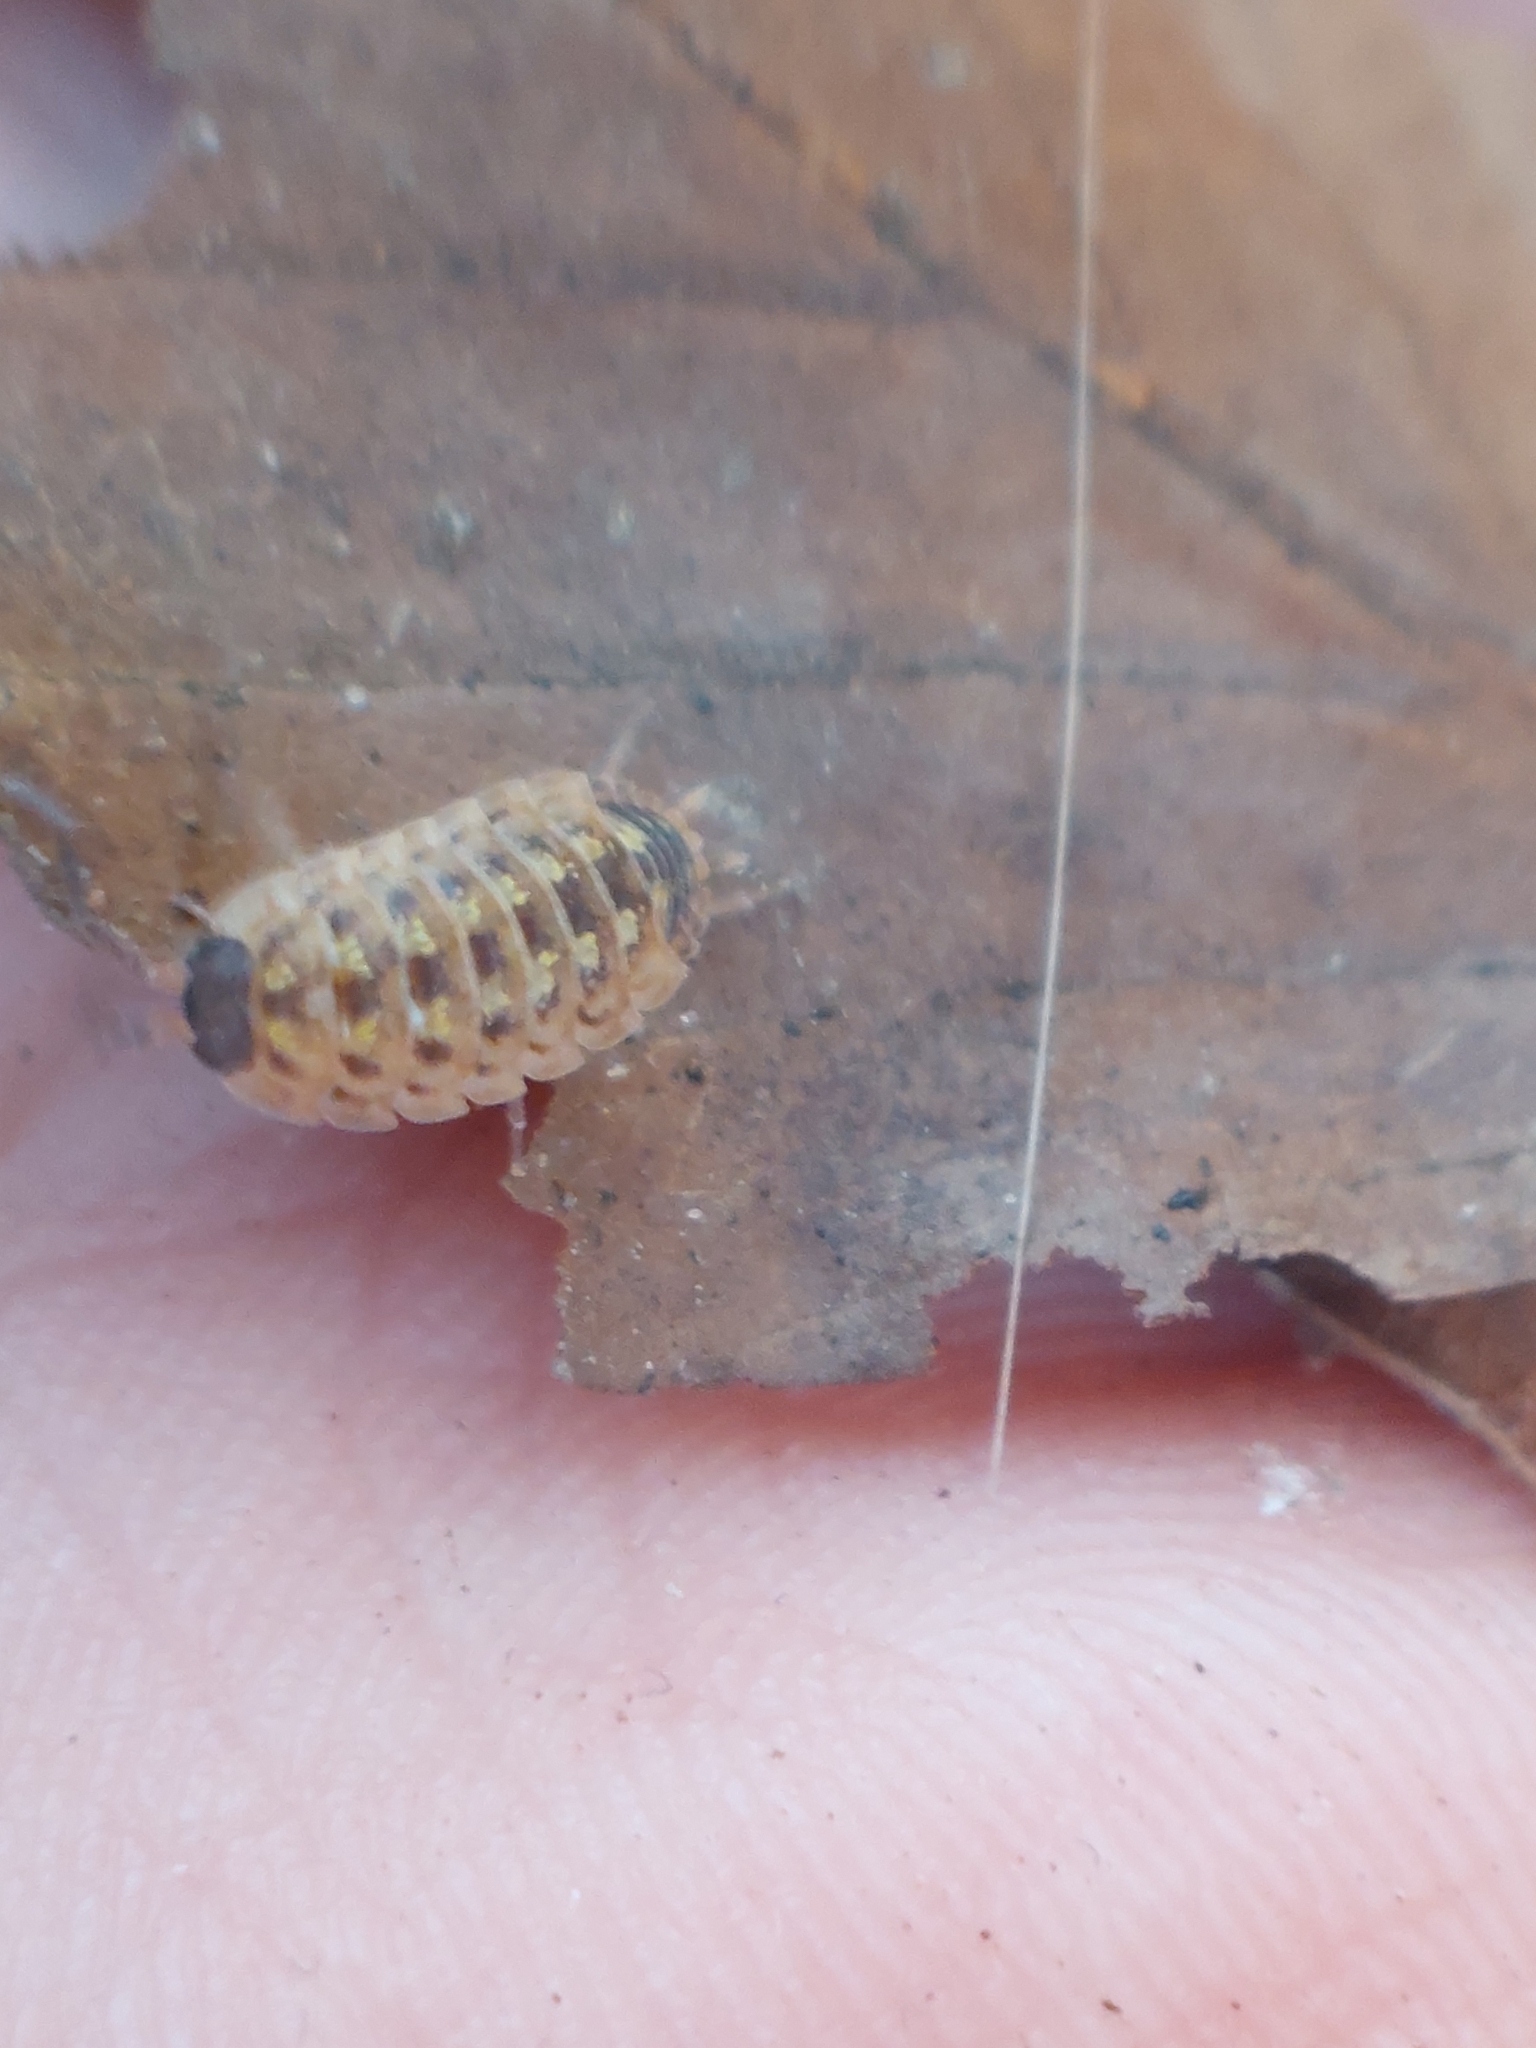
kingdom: Animalia
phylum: Arthropoda
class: Malacostraca
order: Isopoda
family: Porcellionidae
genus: Porcellio
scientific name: Porcellio spinicornis
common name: Painted woodlouse
